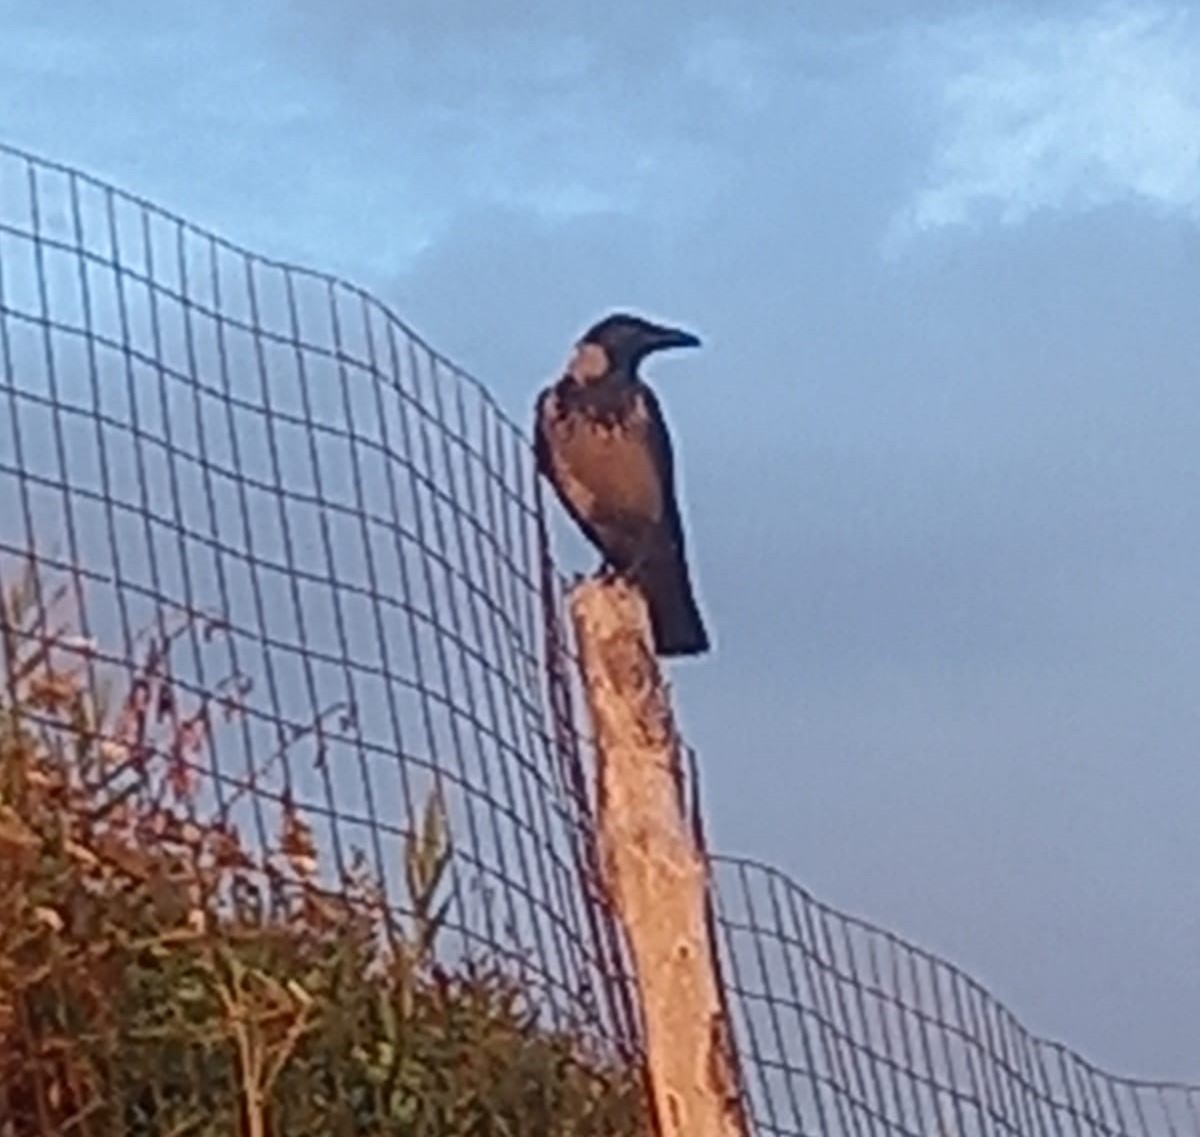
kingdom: Animalia
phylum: Chordata
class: Aves
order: Passeriformes
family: Corvidae
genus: Corvus
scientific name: Corvus cornix
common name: Hooded crow
